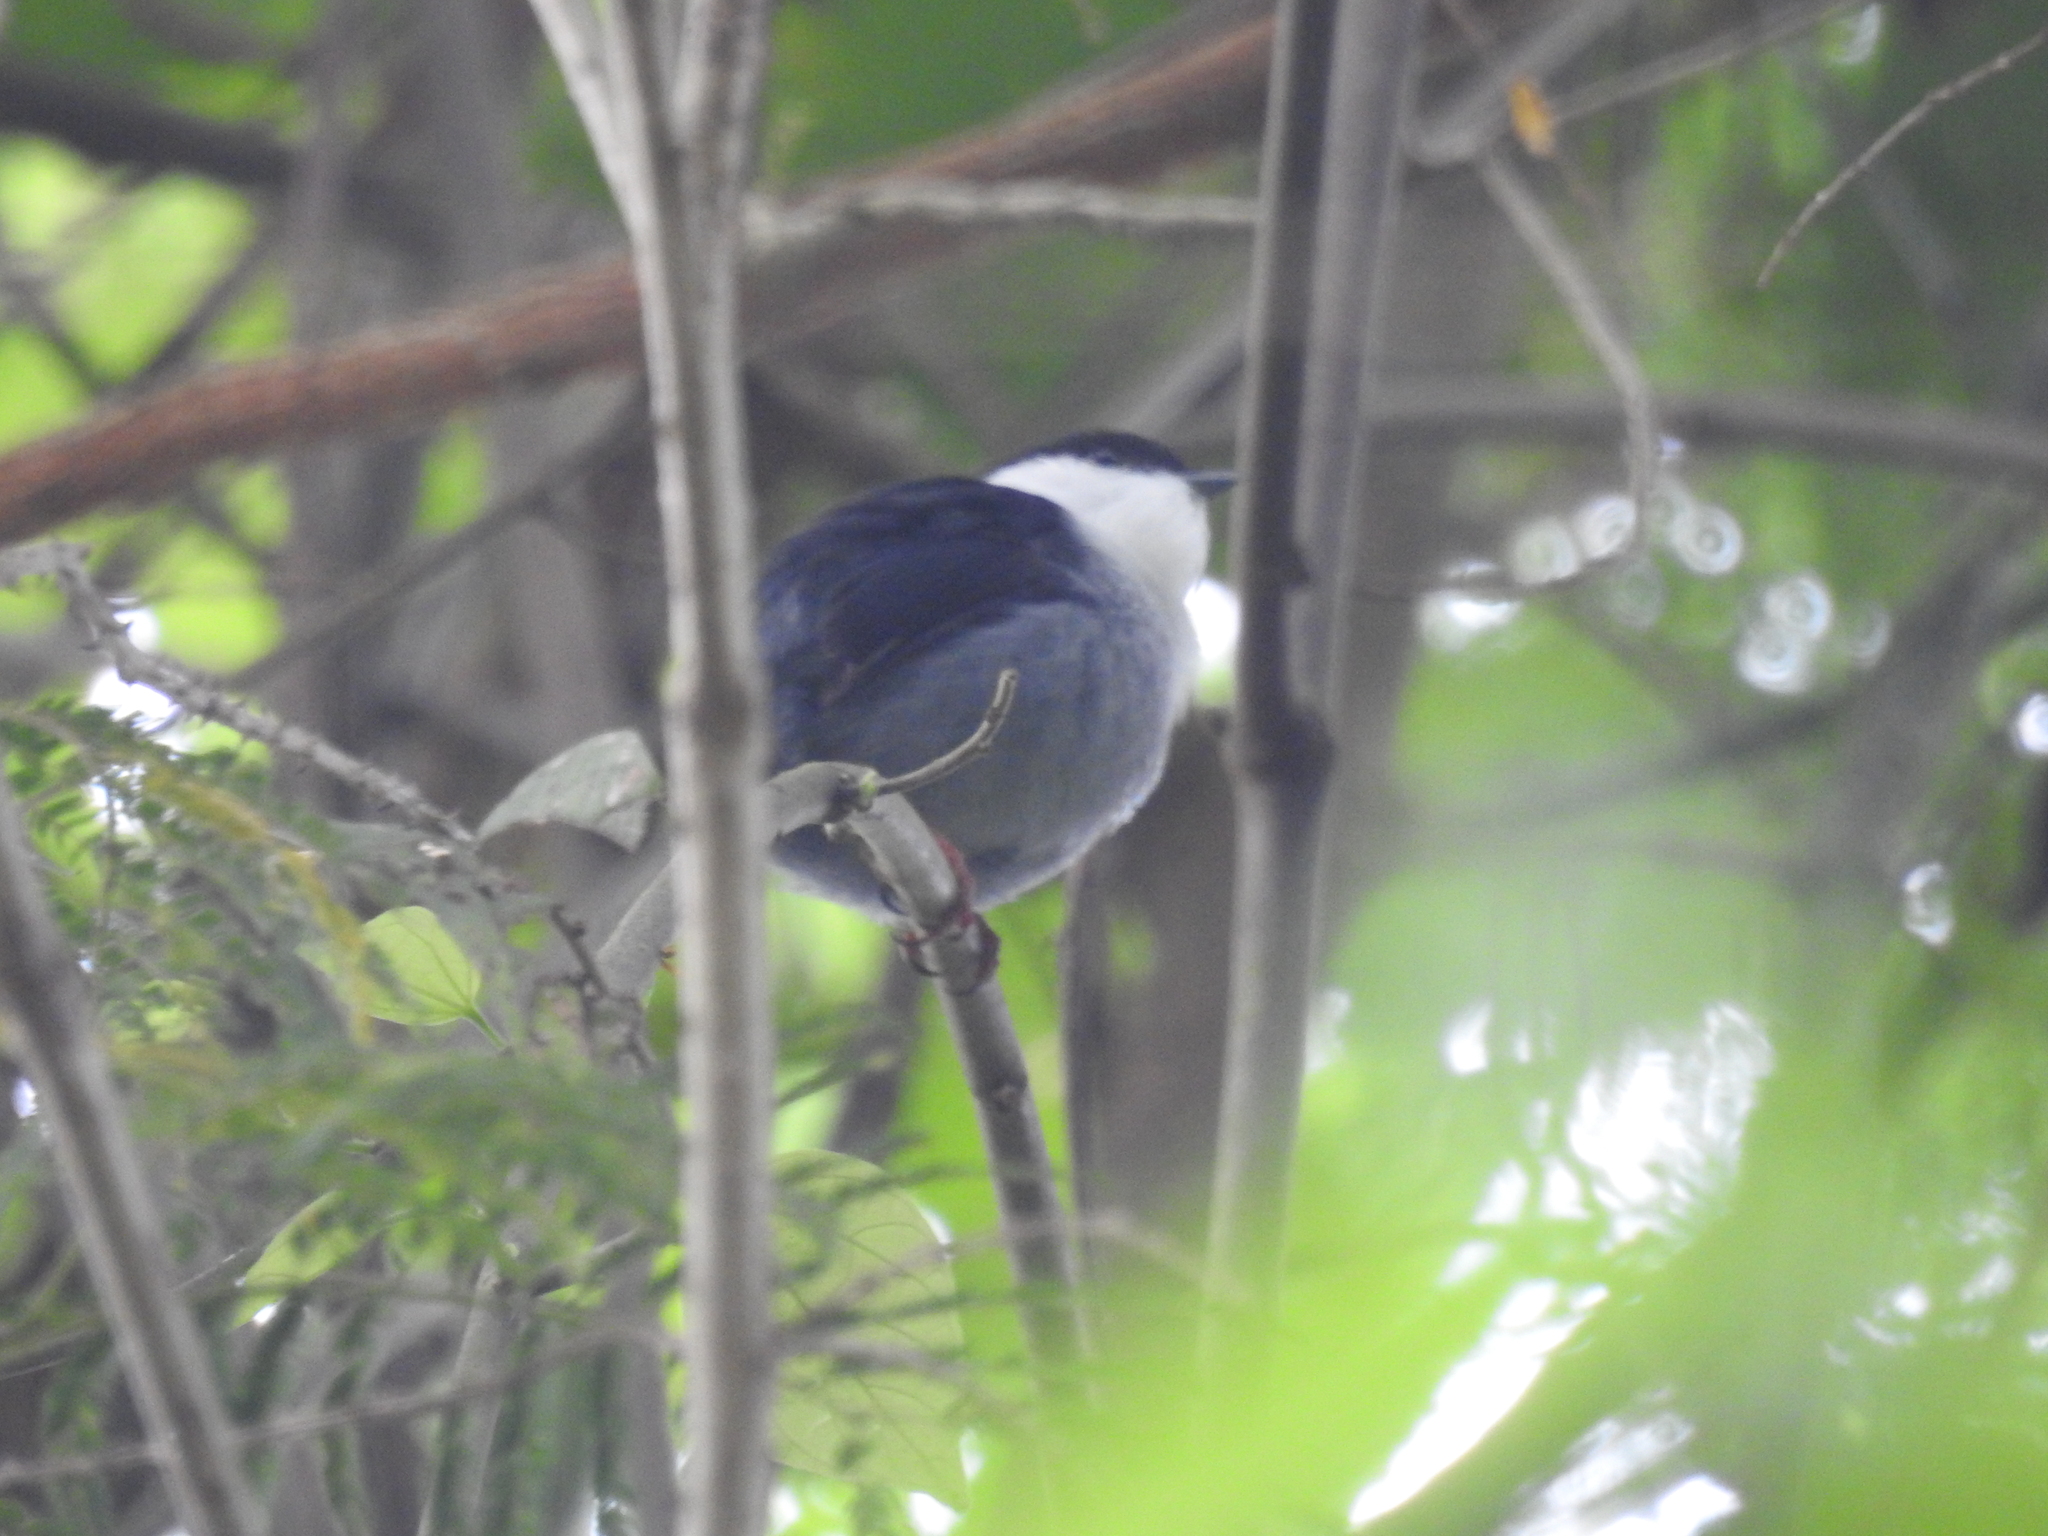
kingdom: Animalia
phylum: Chordata
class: Aves
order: Passeriformes
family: Pipridae
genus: Manacus
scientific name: Manacus manacus
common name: White-bearded manakin
